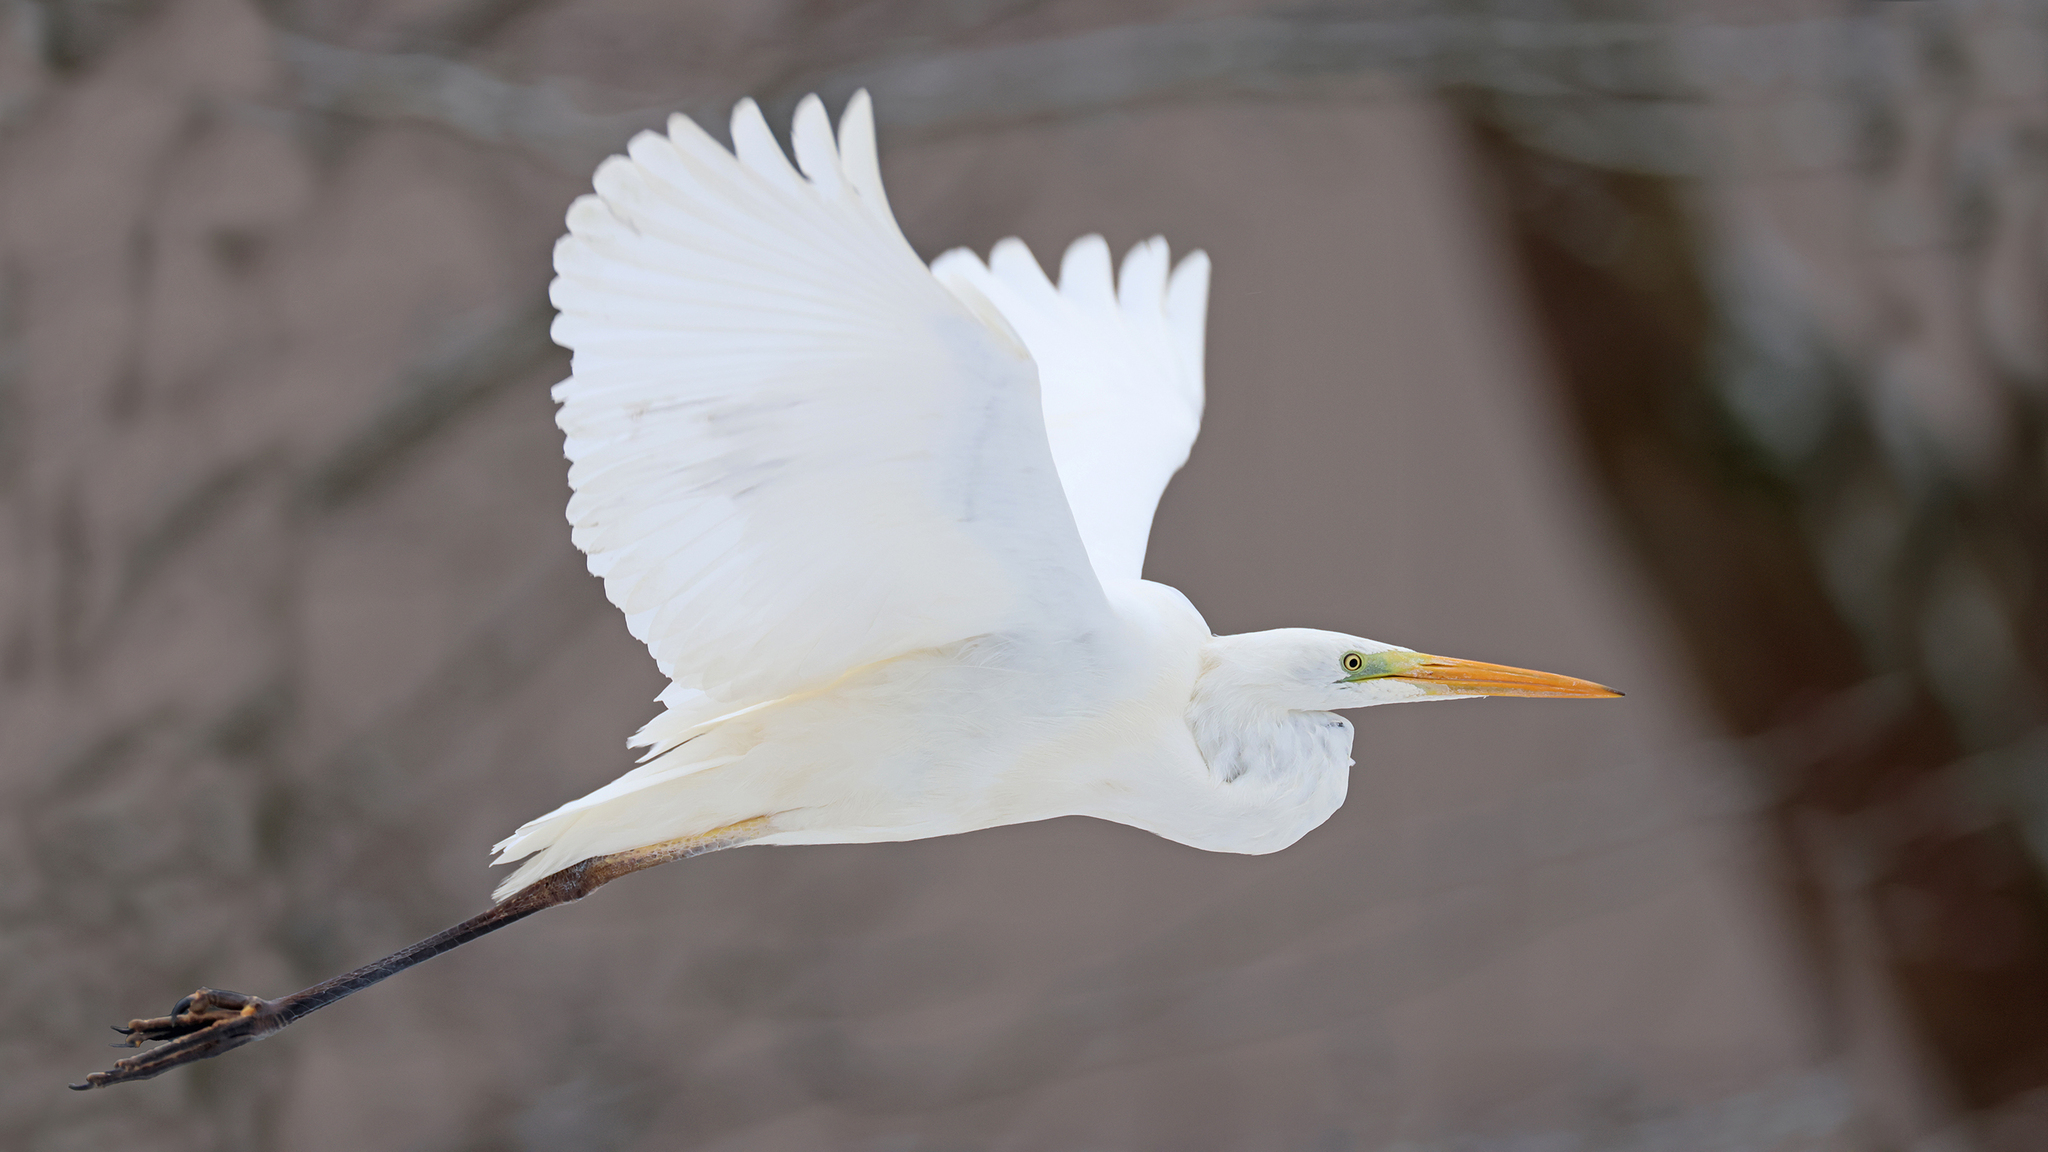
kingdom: Animalia
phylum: Chordata
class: Aves
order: Pelecaniformes
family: Ardeidae
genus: Ardea
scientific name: Ardea alba
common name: Great egret
